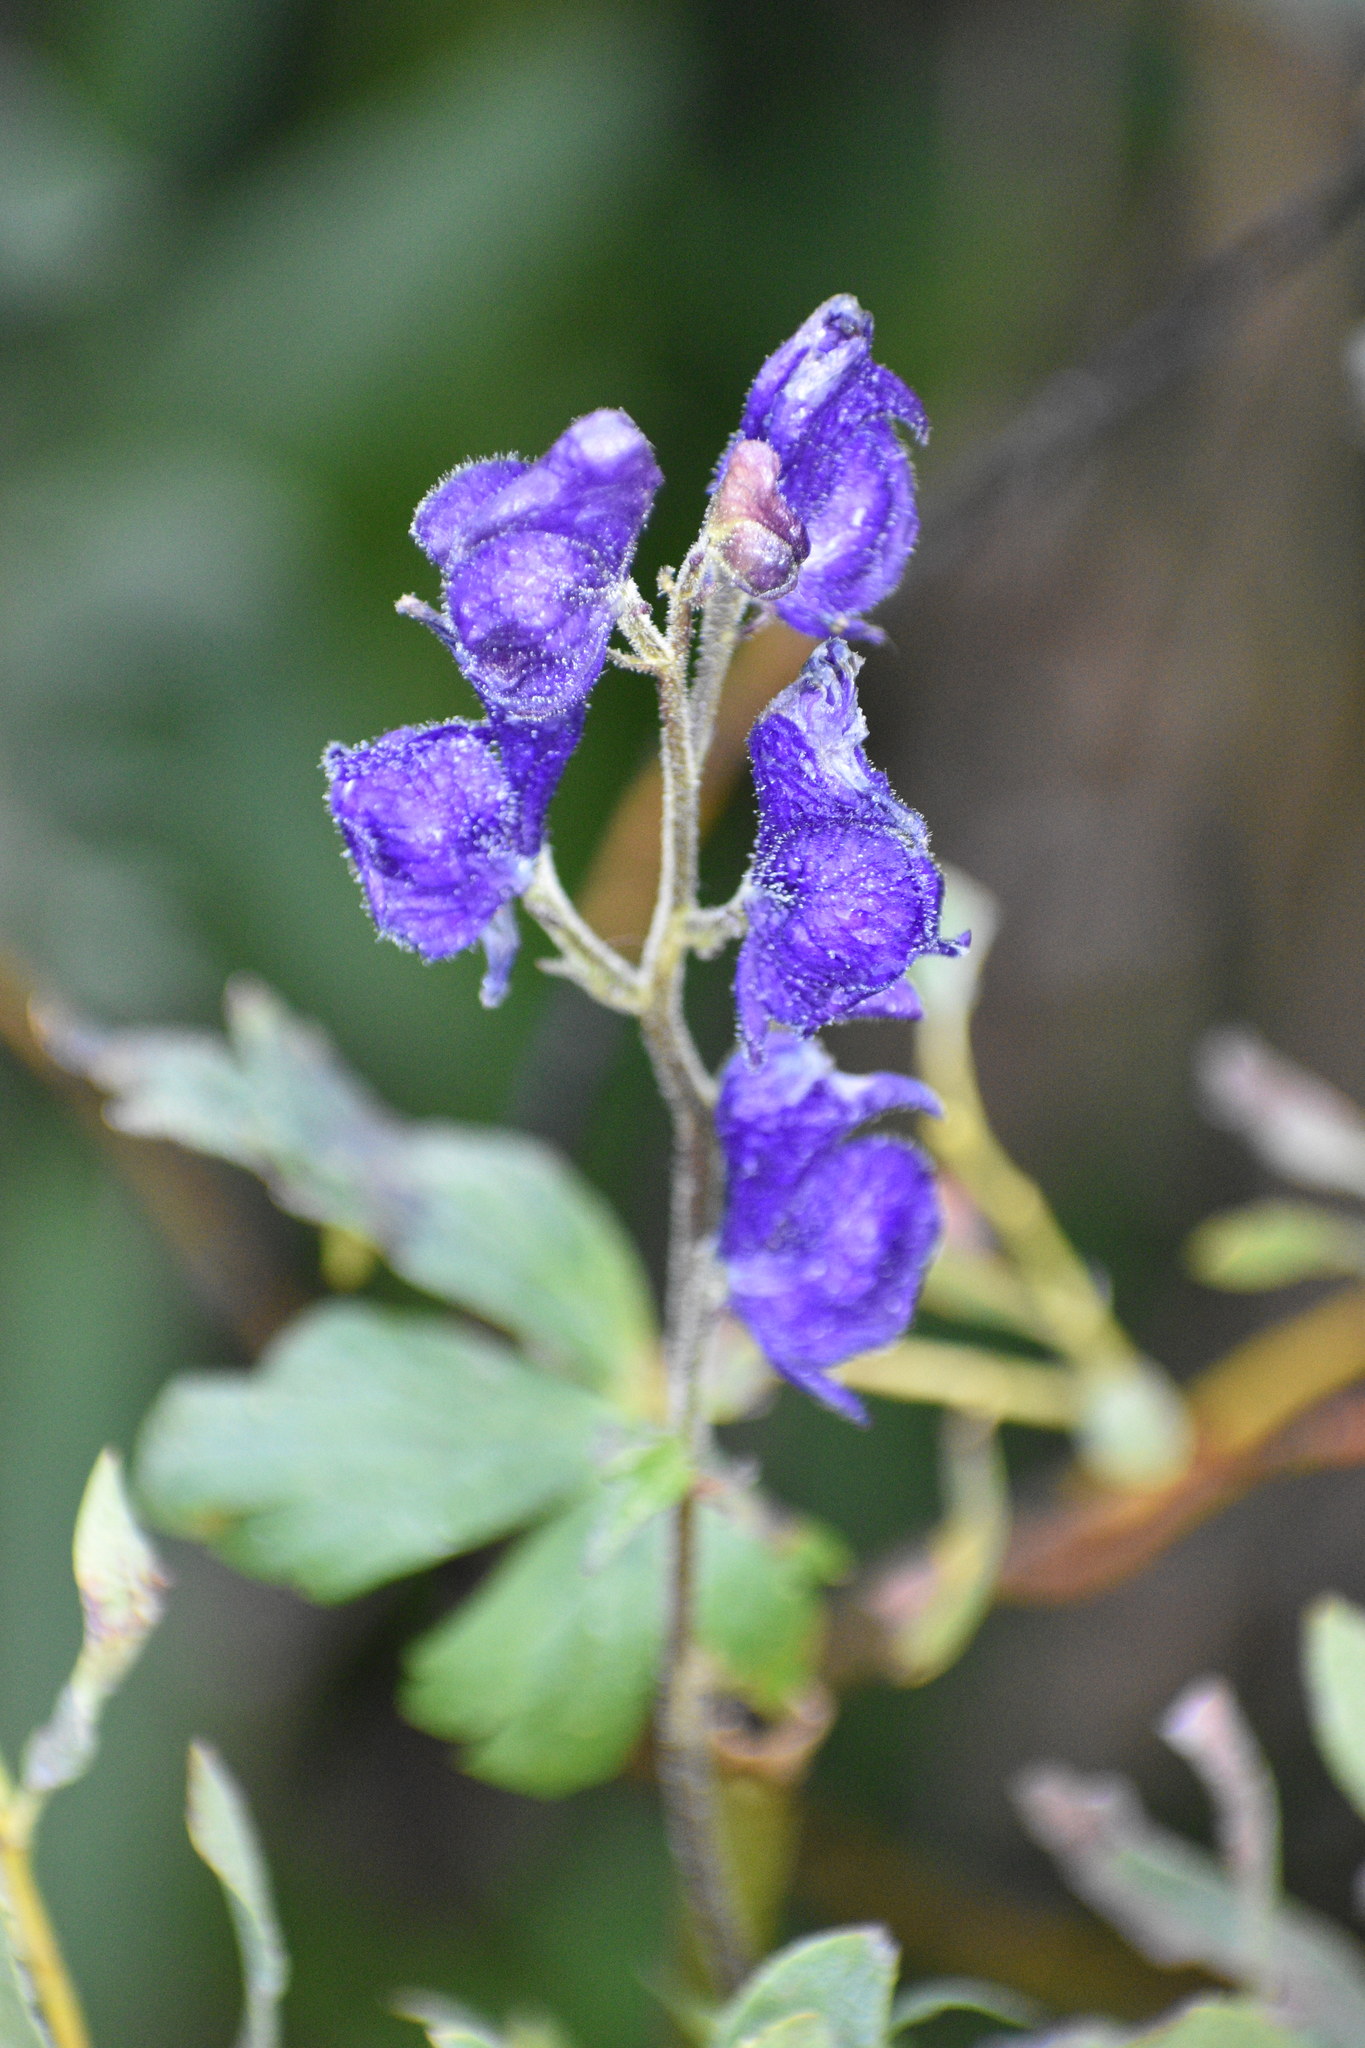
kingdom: Plantae
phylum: Tracheophyta
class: Magnoliopsida
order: Ranunculales
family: Ranunculaceae
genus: Aconitum
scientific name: Aconitum columbianum
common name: Columbia aconite
